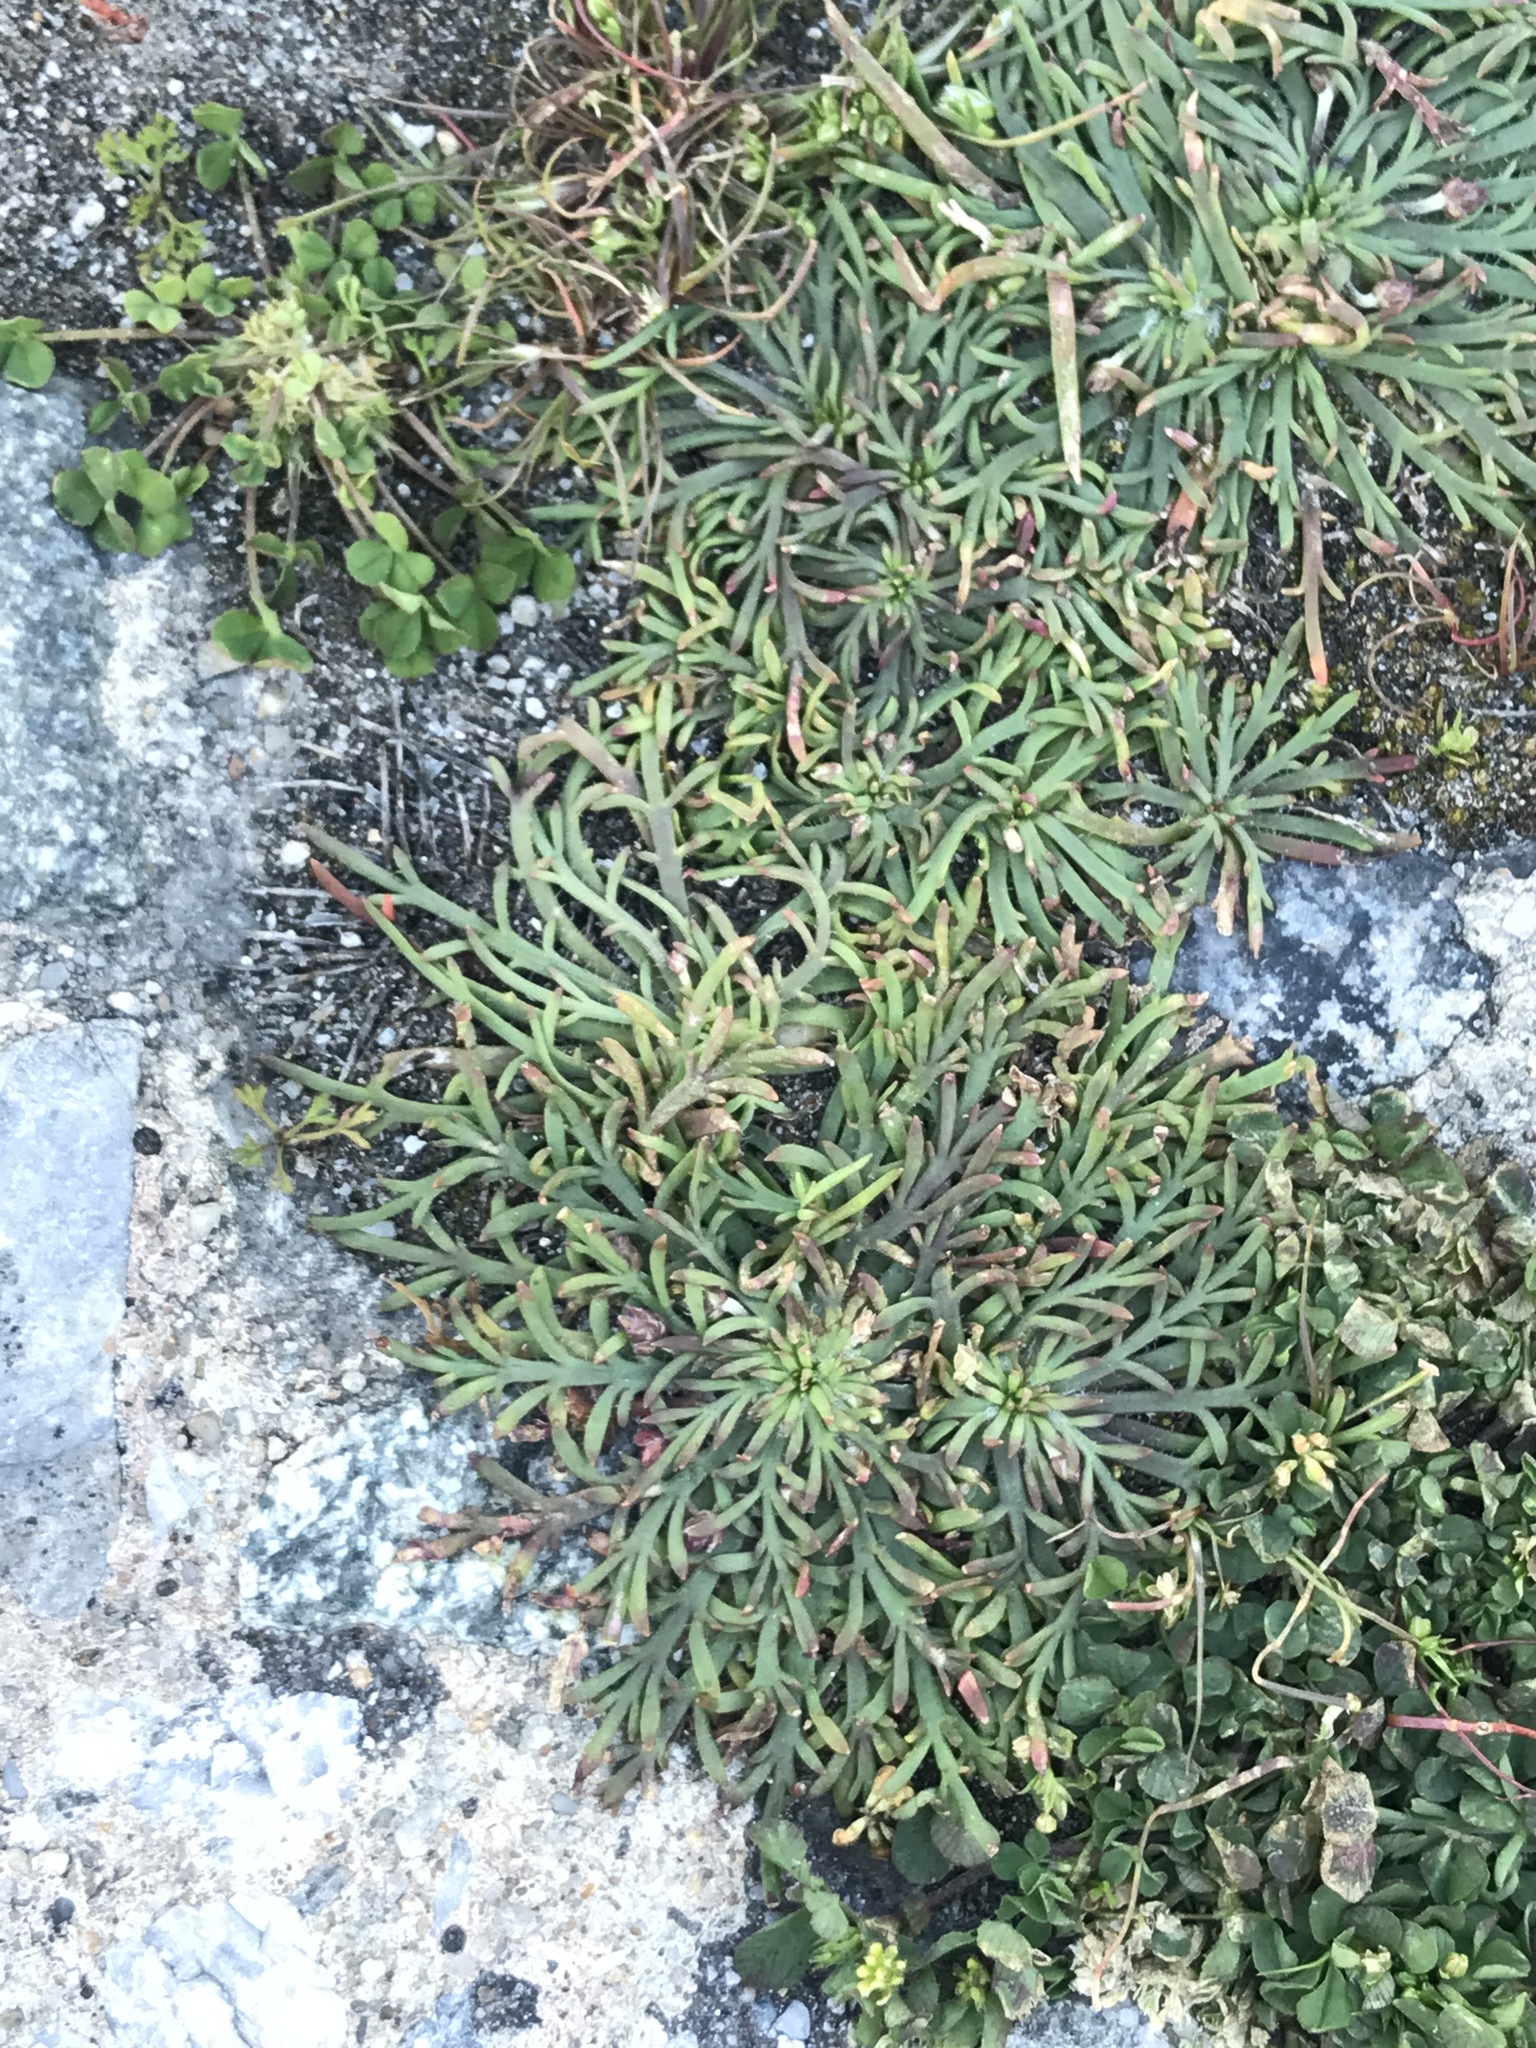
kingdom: Plantae
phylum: Tracheophyta
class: Magnoliopsida
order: Lamiales
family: Plantaginaceae
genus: Plantago
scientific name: Plantago coronopus
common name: Buck's-horn plantain
